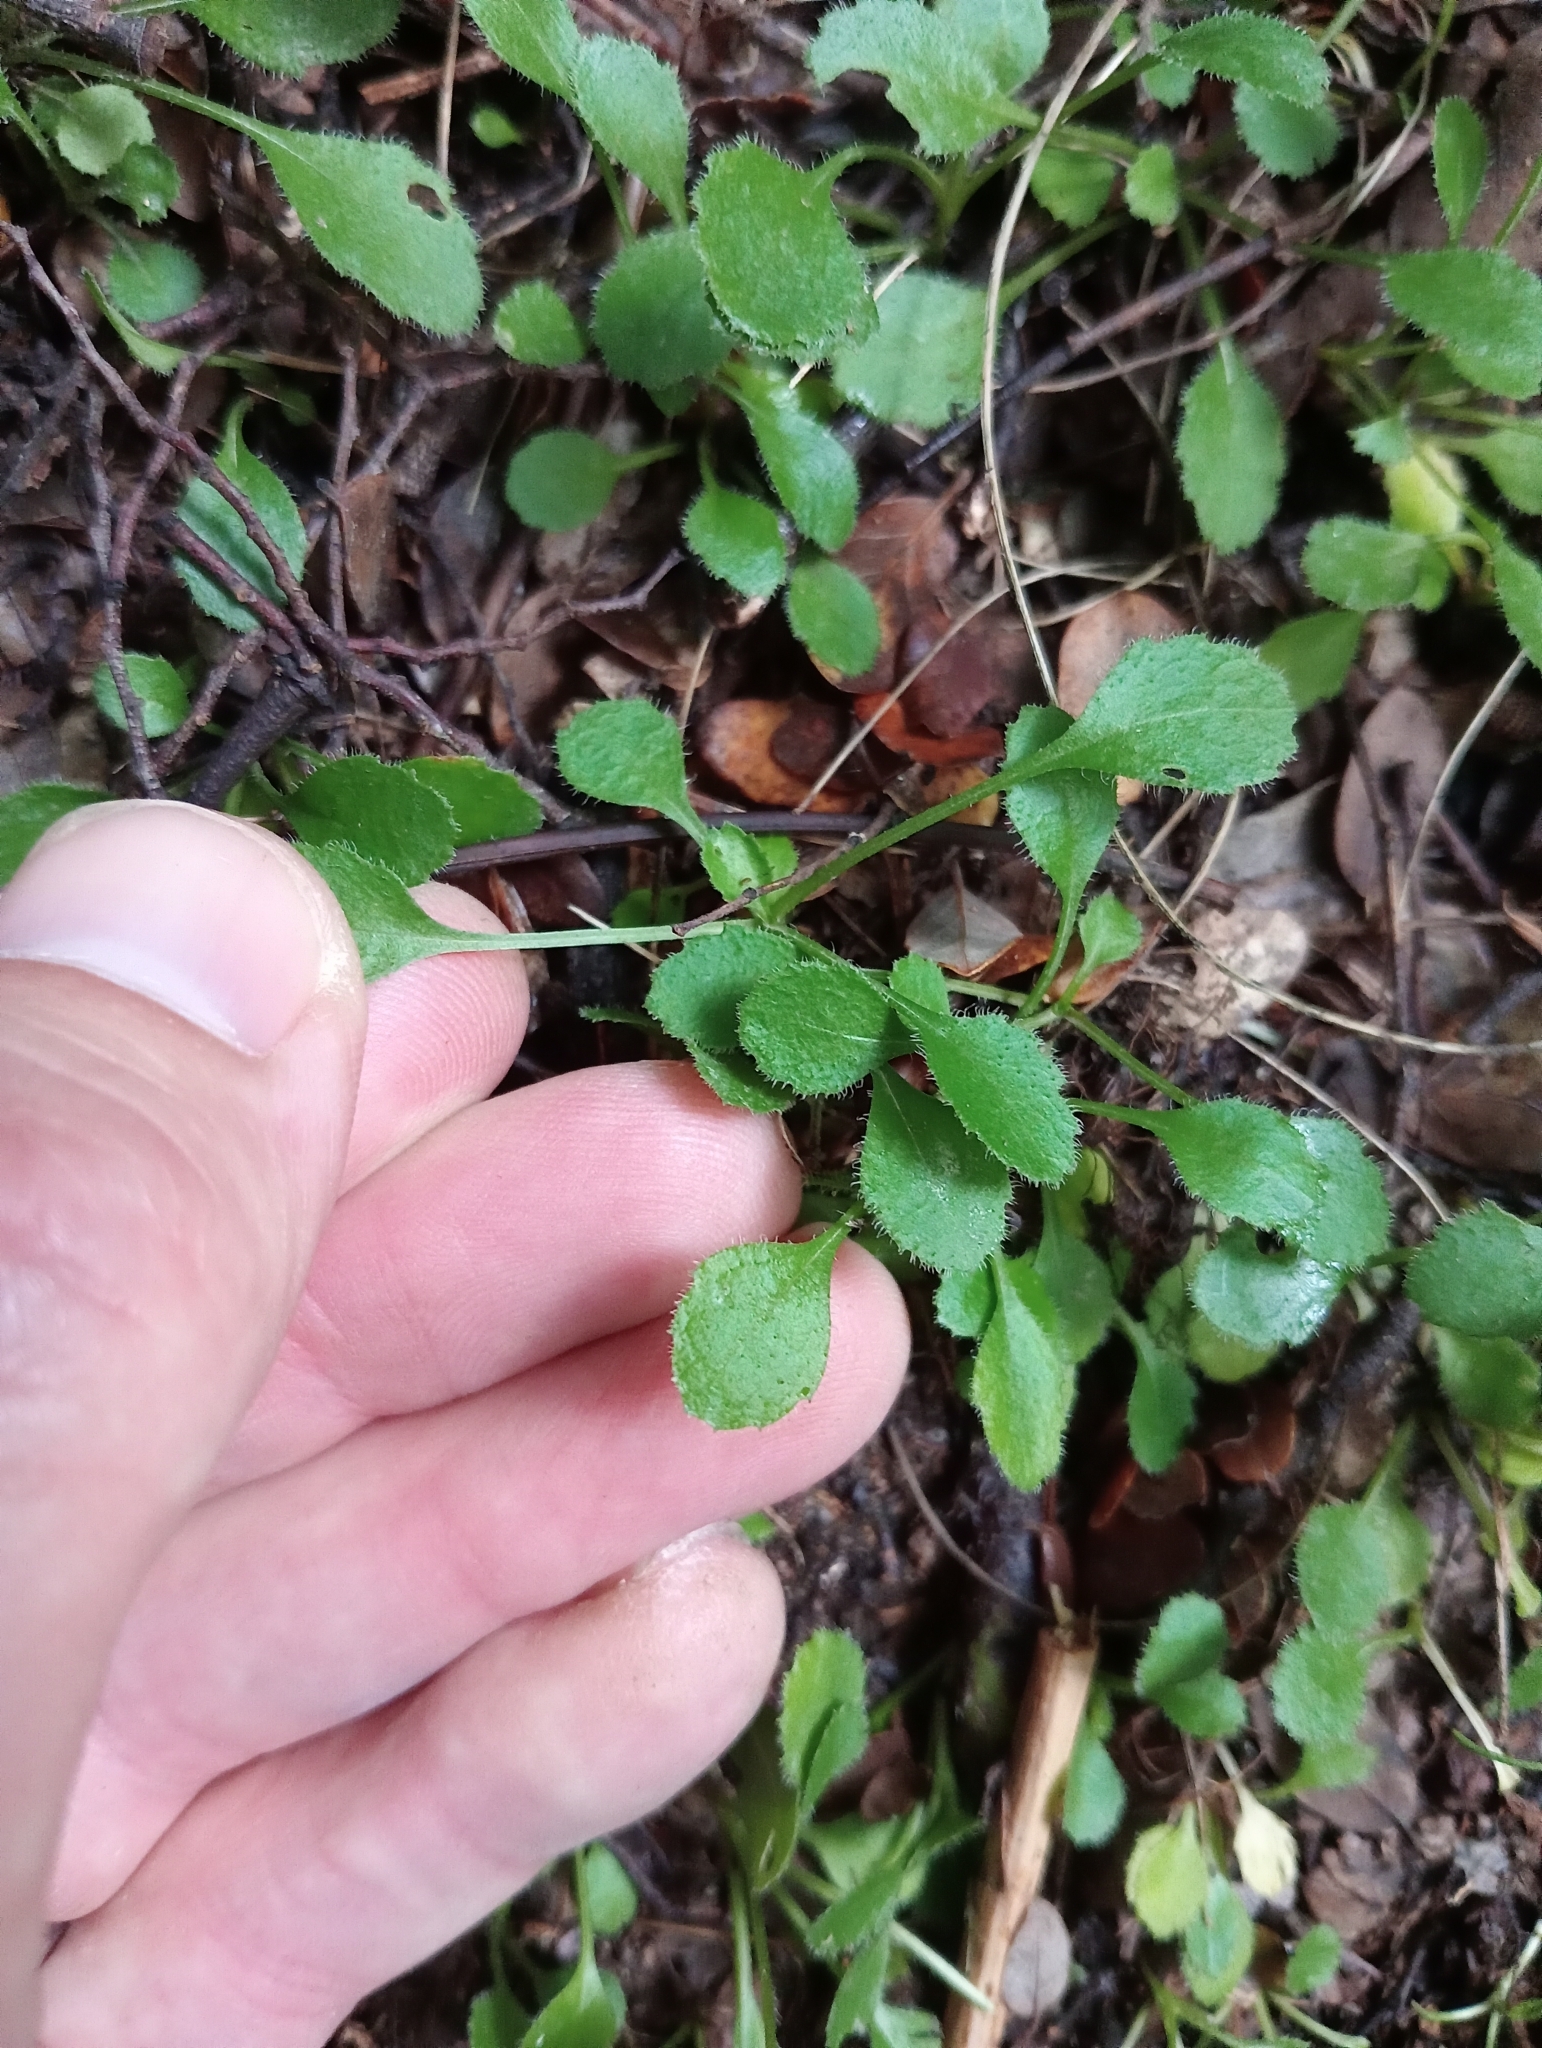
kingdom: Plantae
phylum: Tracheophyta
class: Magnoliopsida
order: Asterales
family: Asteraceae
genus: Lagenophora
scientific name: Lagenophora strangulata
